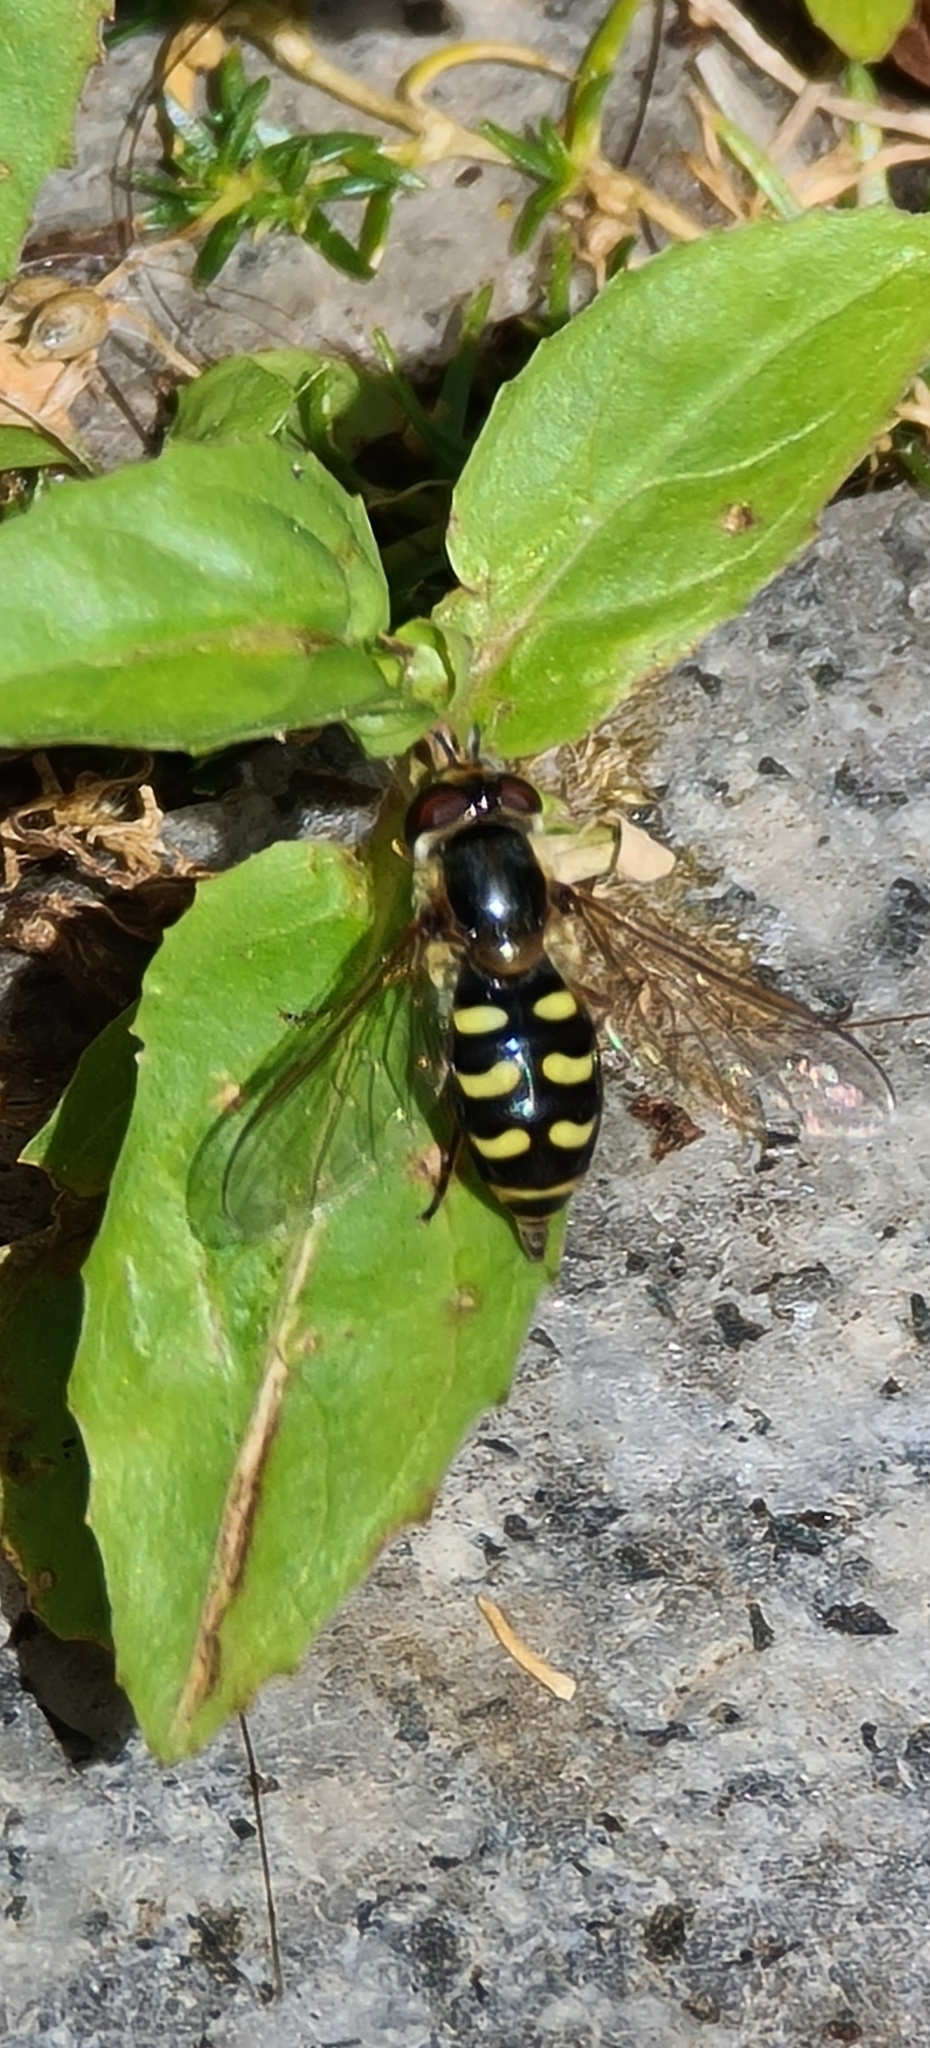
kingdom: Animalia
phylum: Arthropoda
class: Insecta
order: Diptera
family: Syrphidae
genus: Eupeodes
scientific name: Eupeodes
